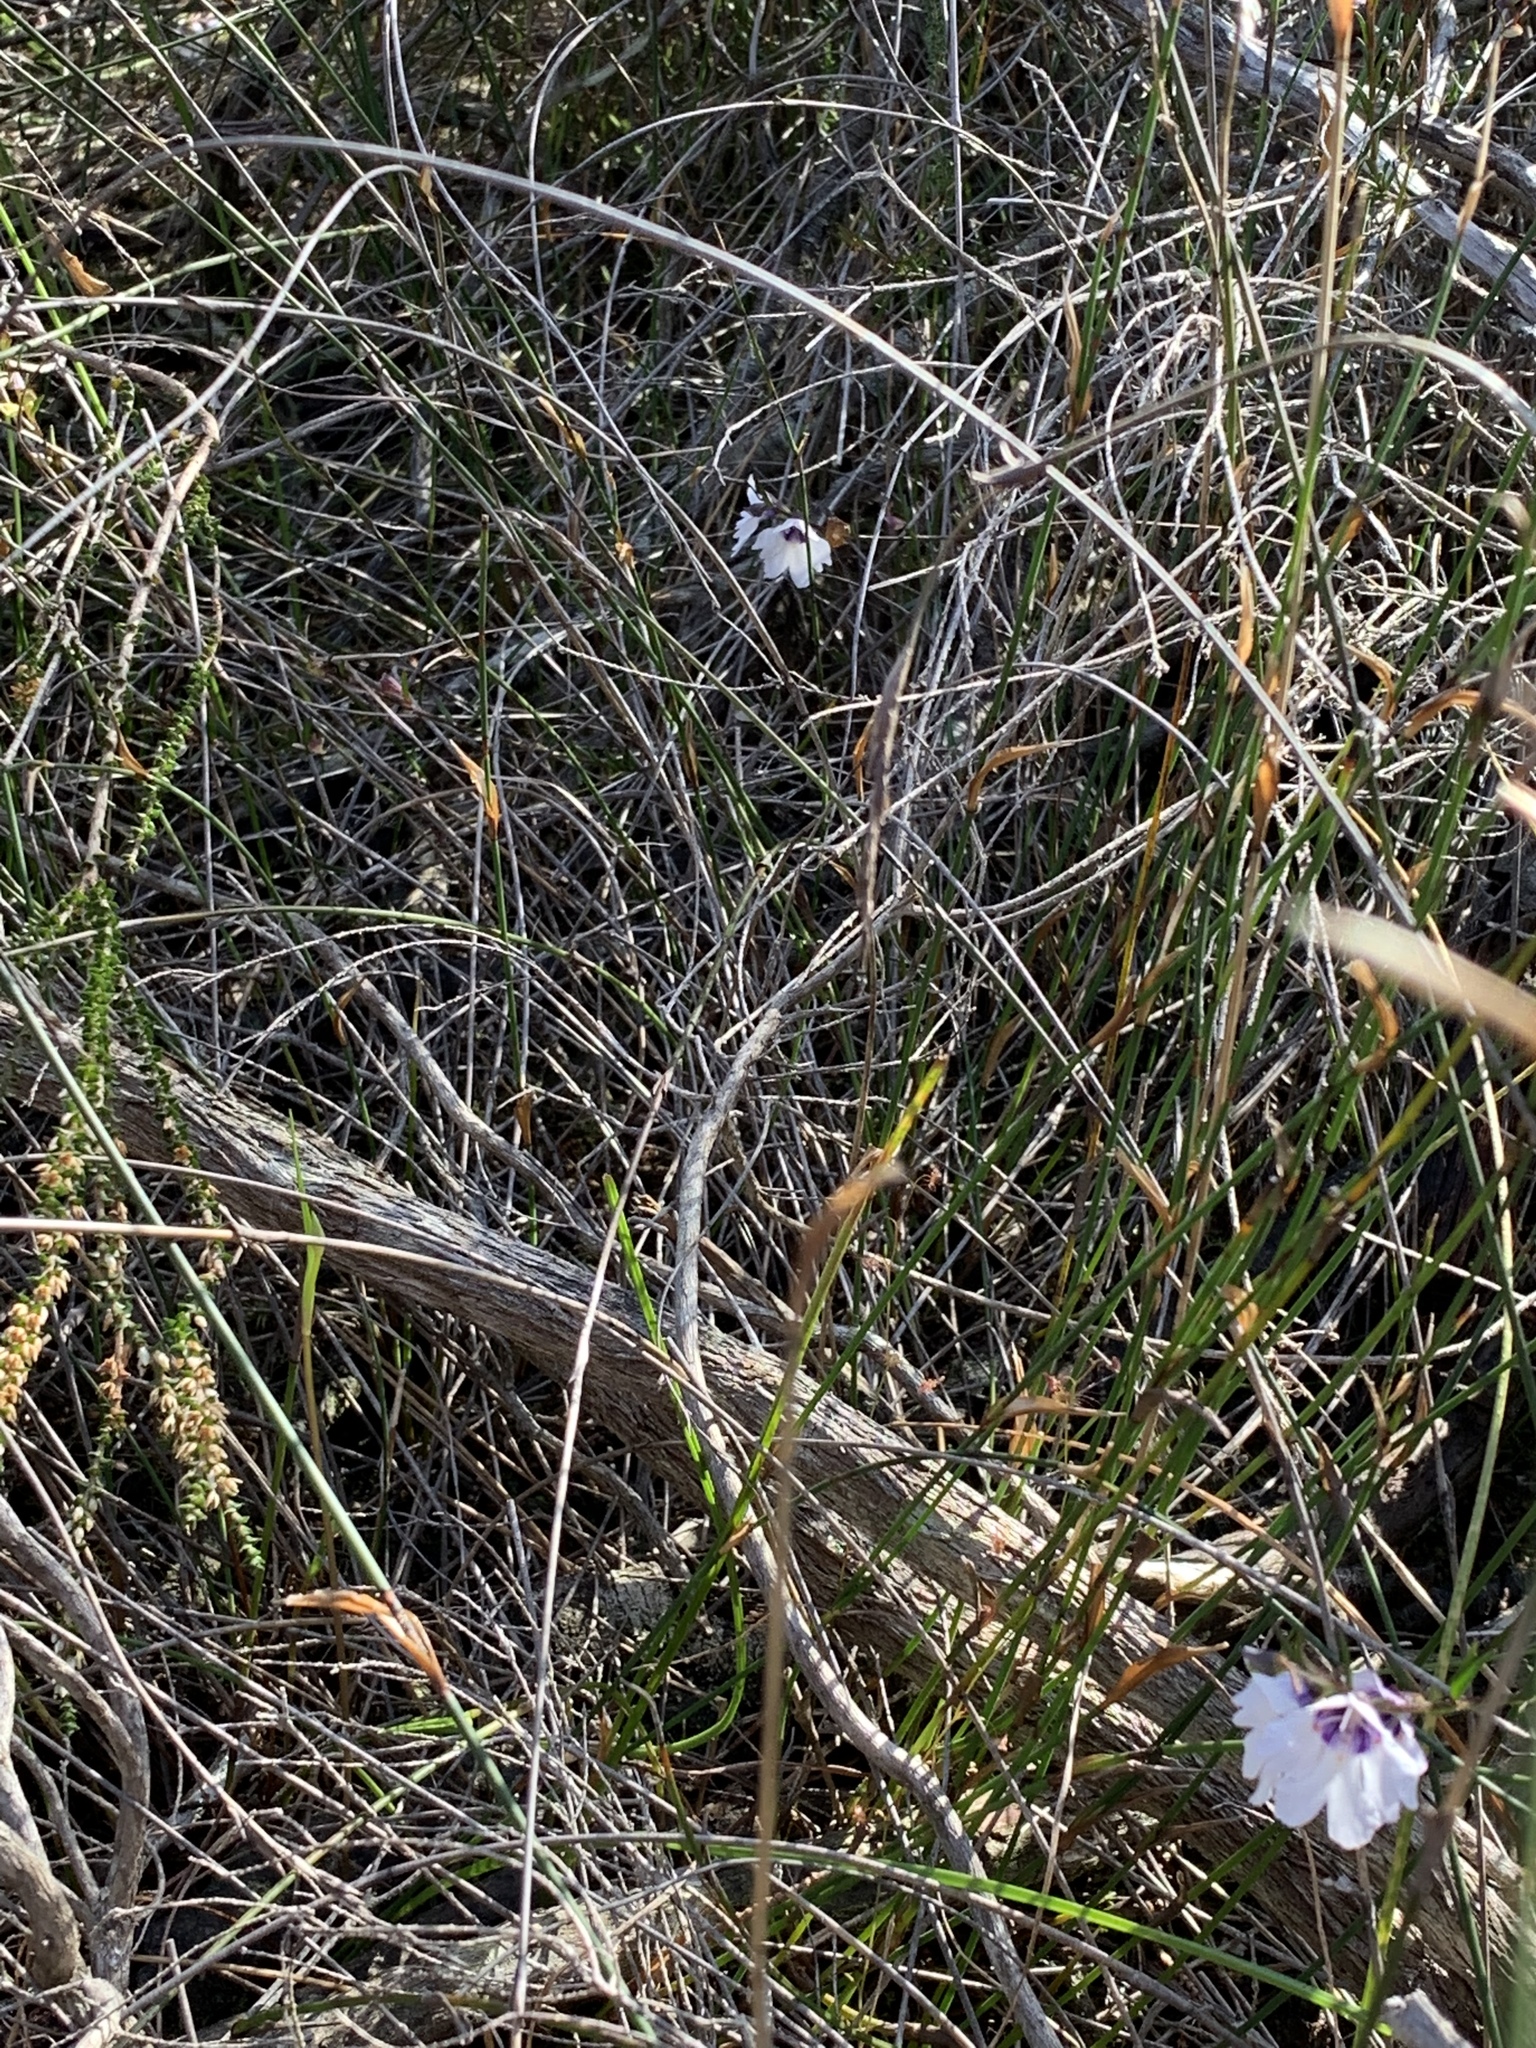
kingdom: Plantae
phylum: Tracheophyta
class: Magnoliopsida
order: Lamiales
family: Lamiaceae
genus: Prostanthera
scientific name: Prostanthera saxicola
